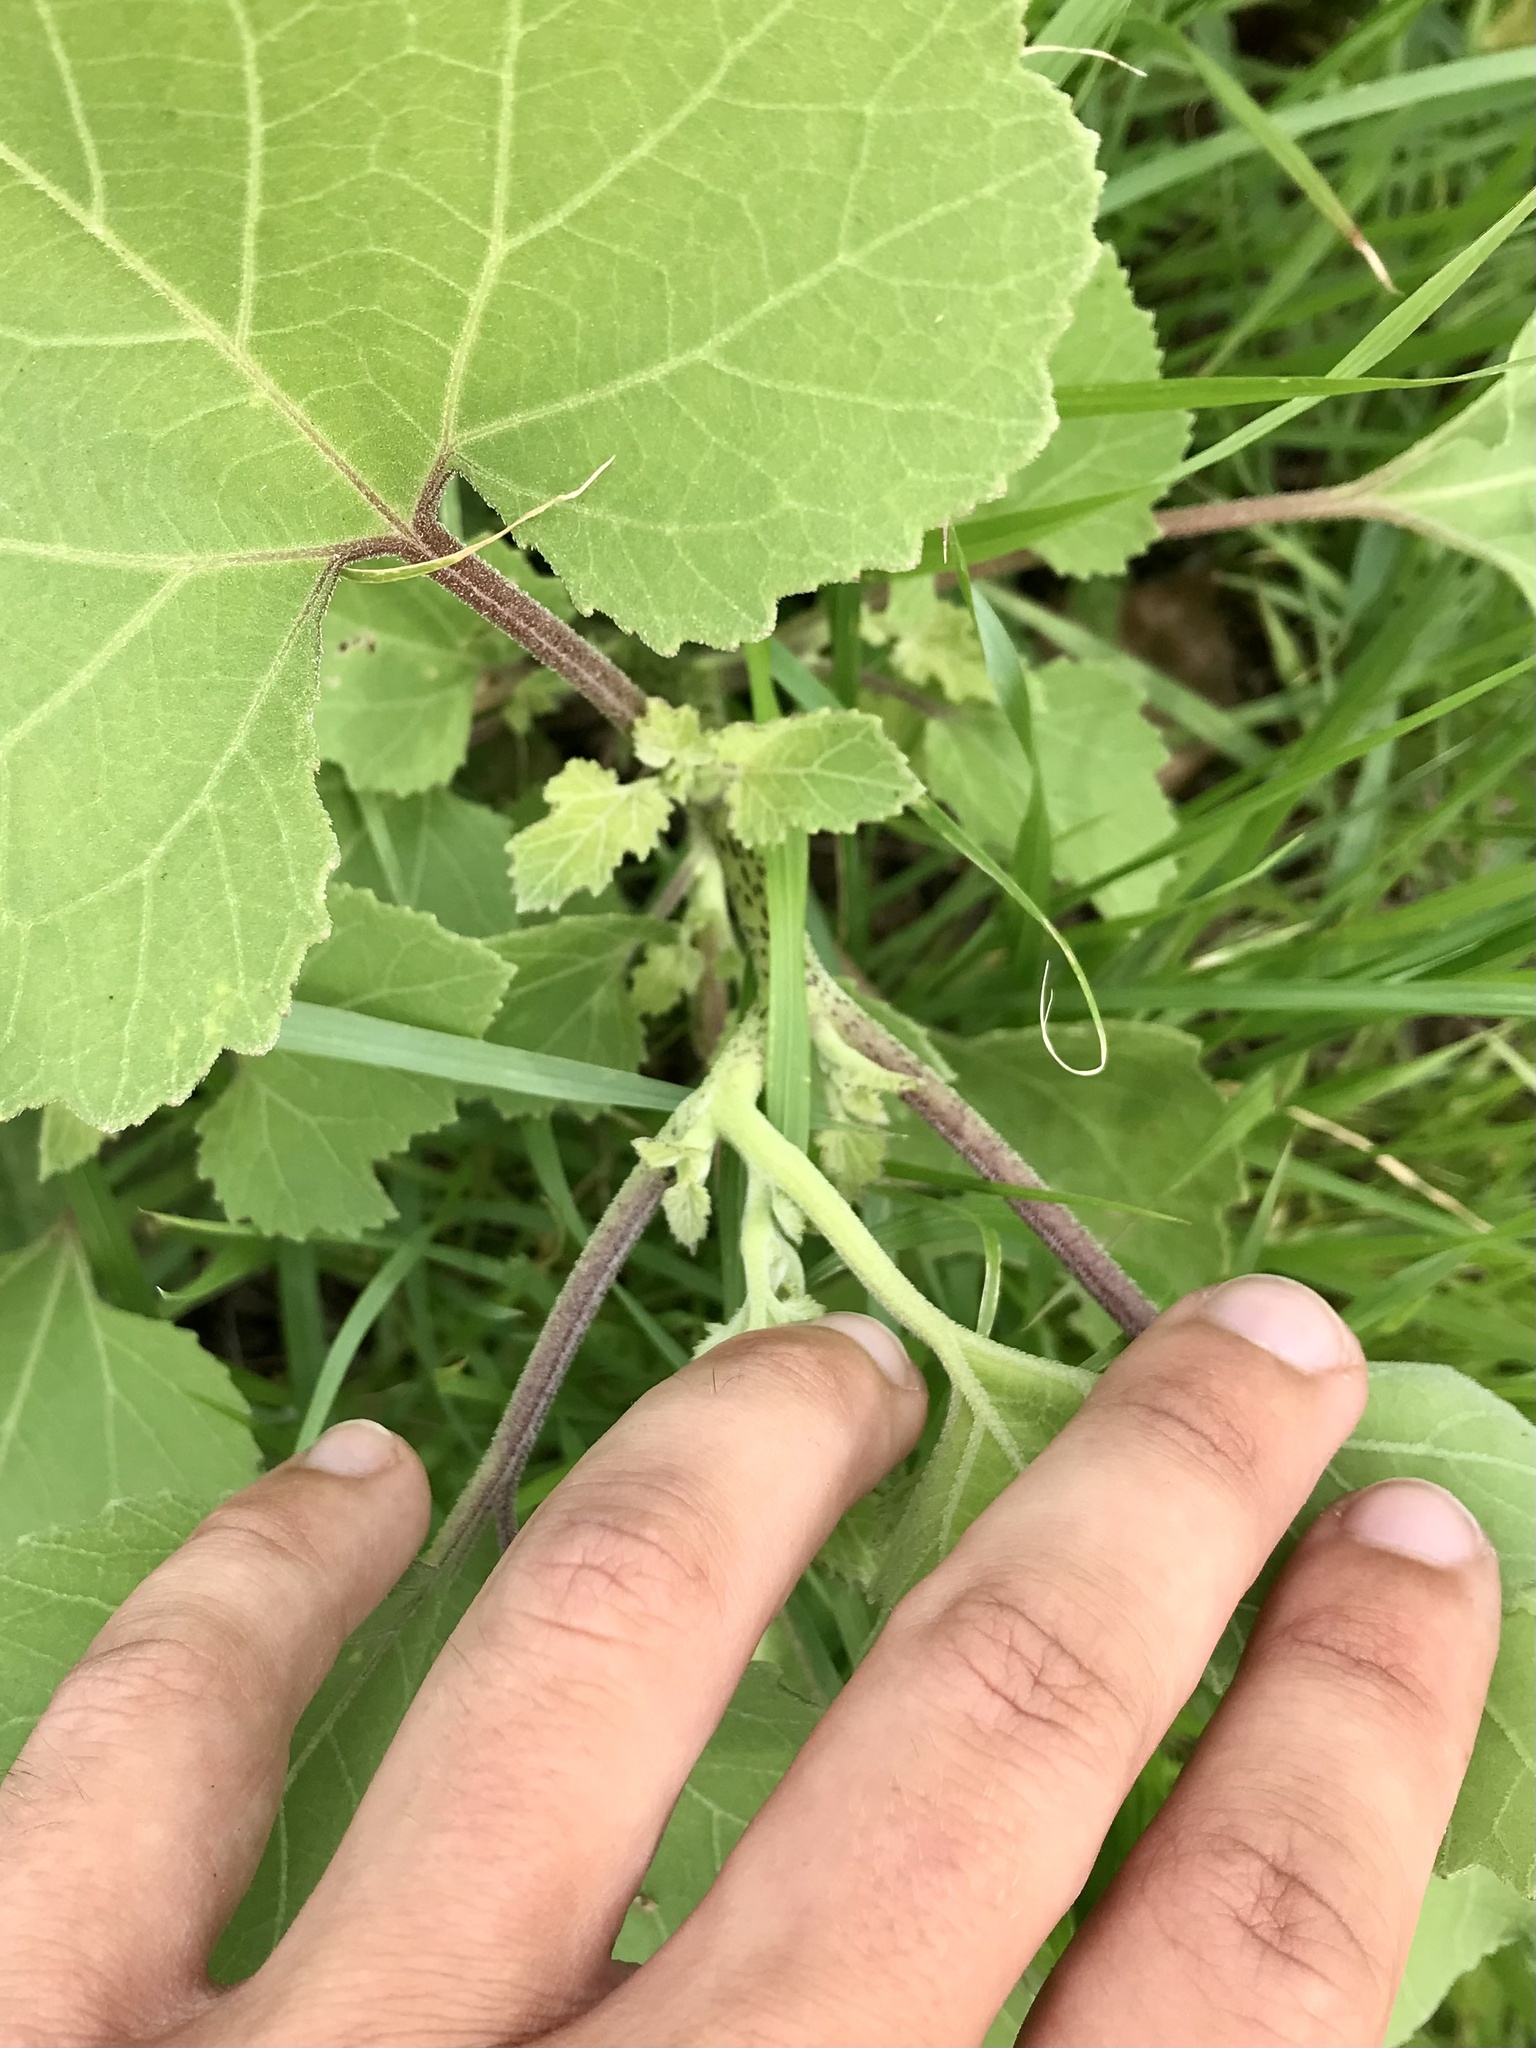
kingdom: Plantae
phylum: Tracheophyta
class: Magnoliopsida
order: Asterales
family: Asteraceae
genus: Xanthium
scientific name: Xanthium strumarium
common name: Rough cocklebur
